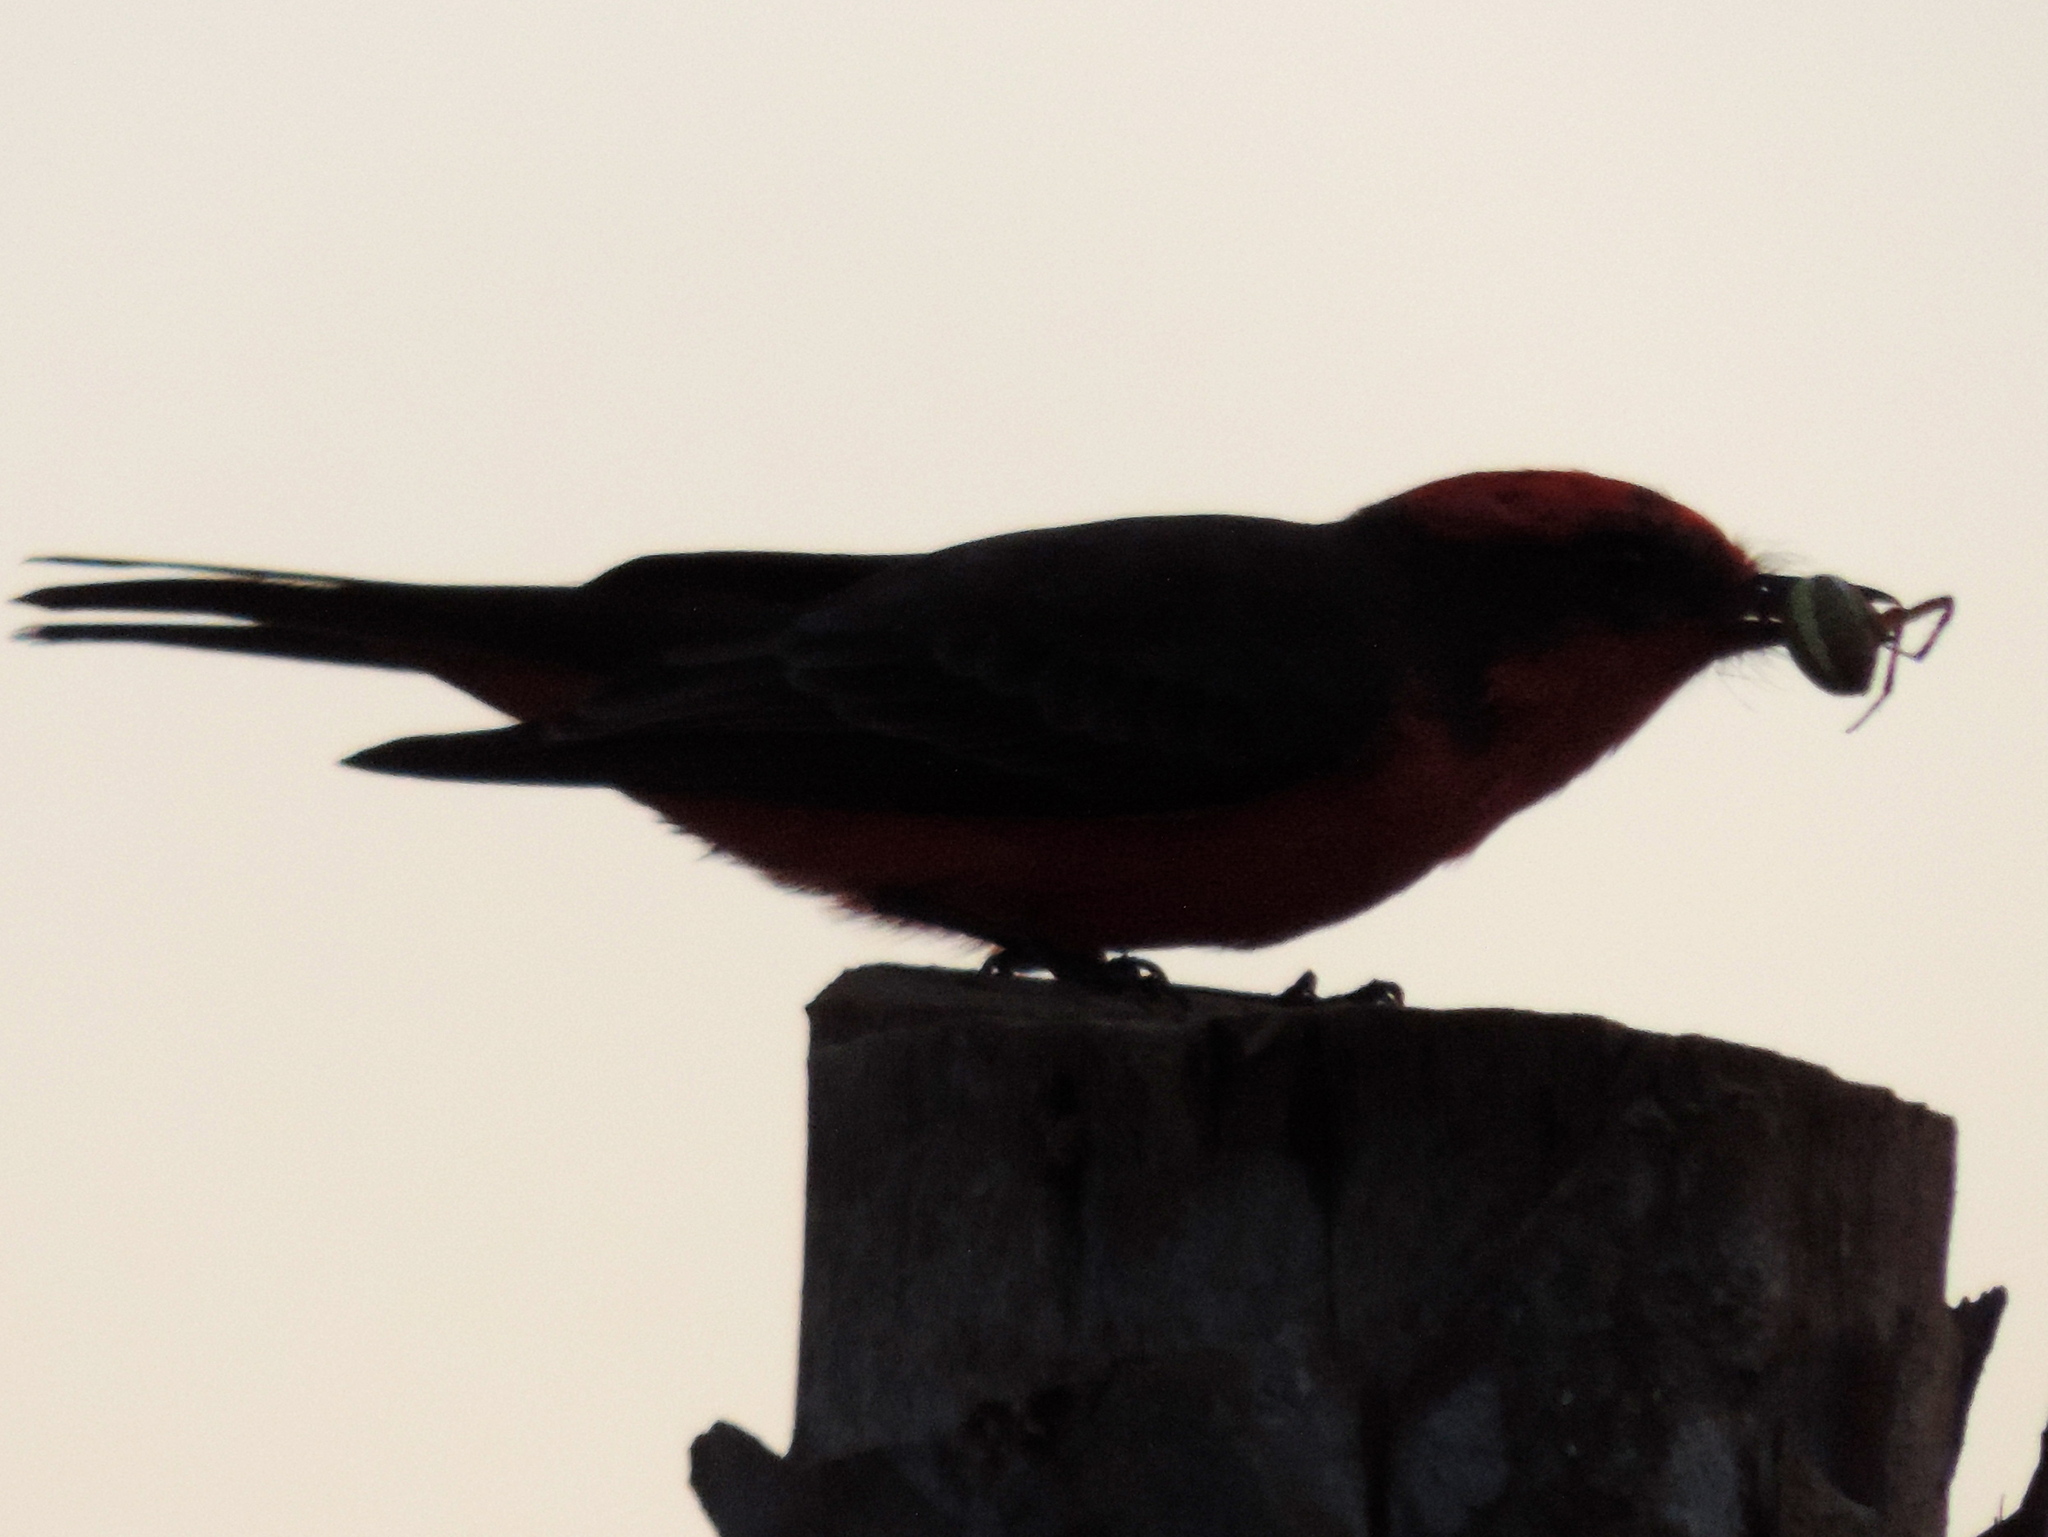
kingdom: Animalia
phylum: Chordata
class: Aves
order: Passeriformes
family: Tyrannidae
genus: Pyrocephalus
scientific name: Pyrocephalus rubinus
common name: Vermilion flycatcher
